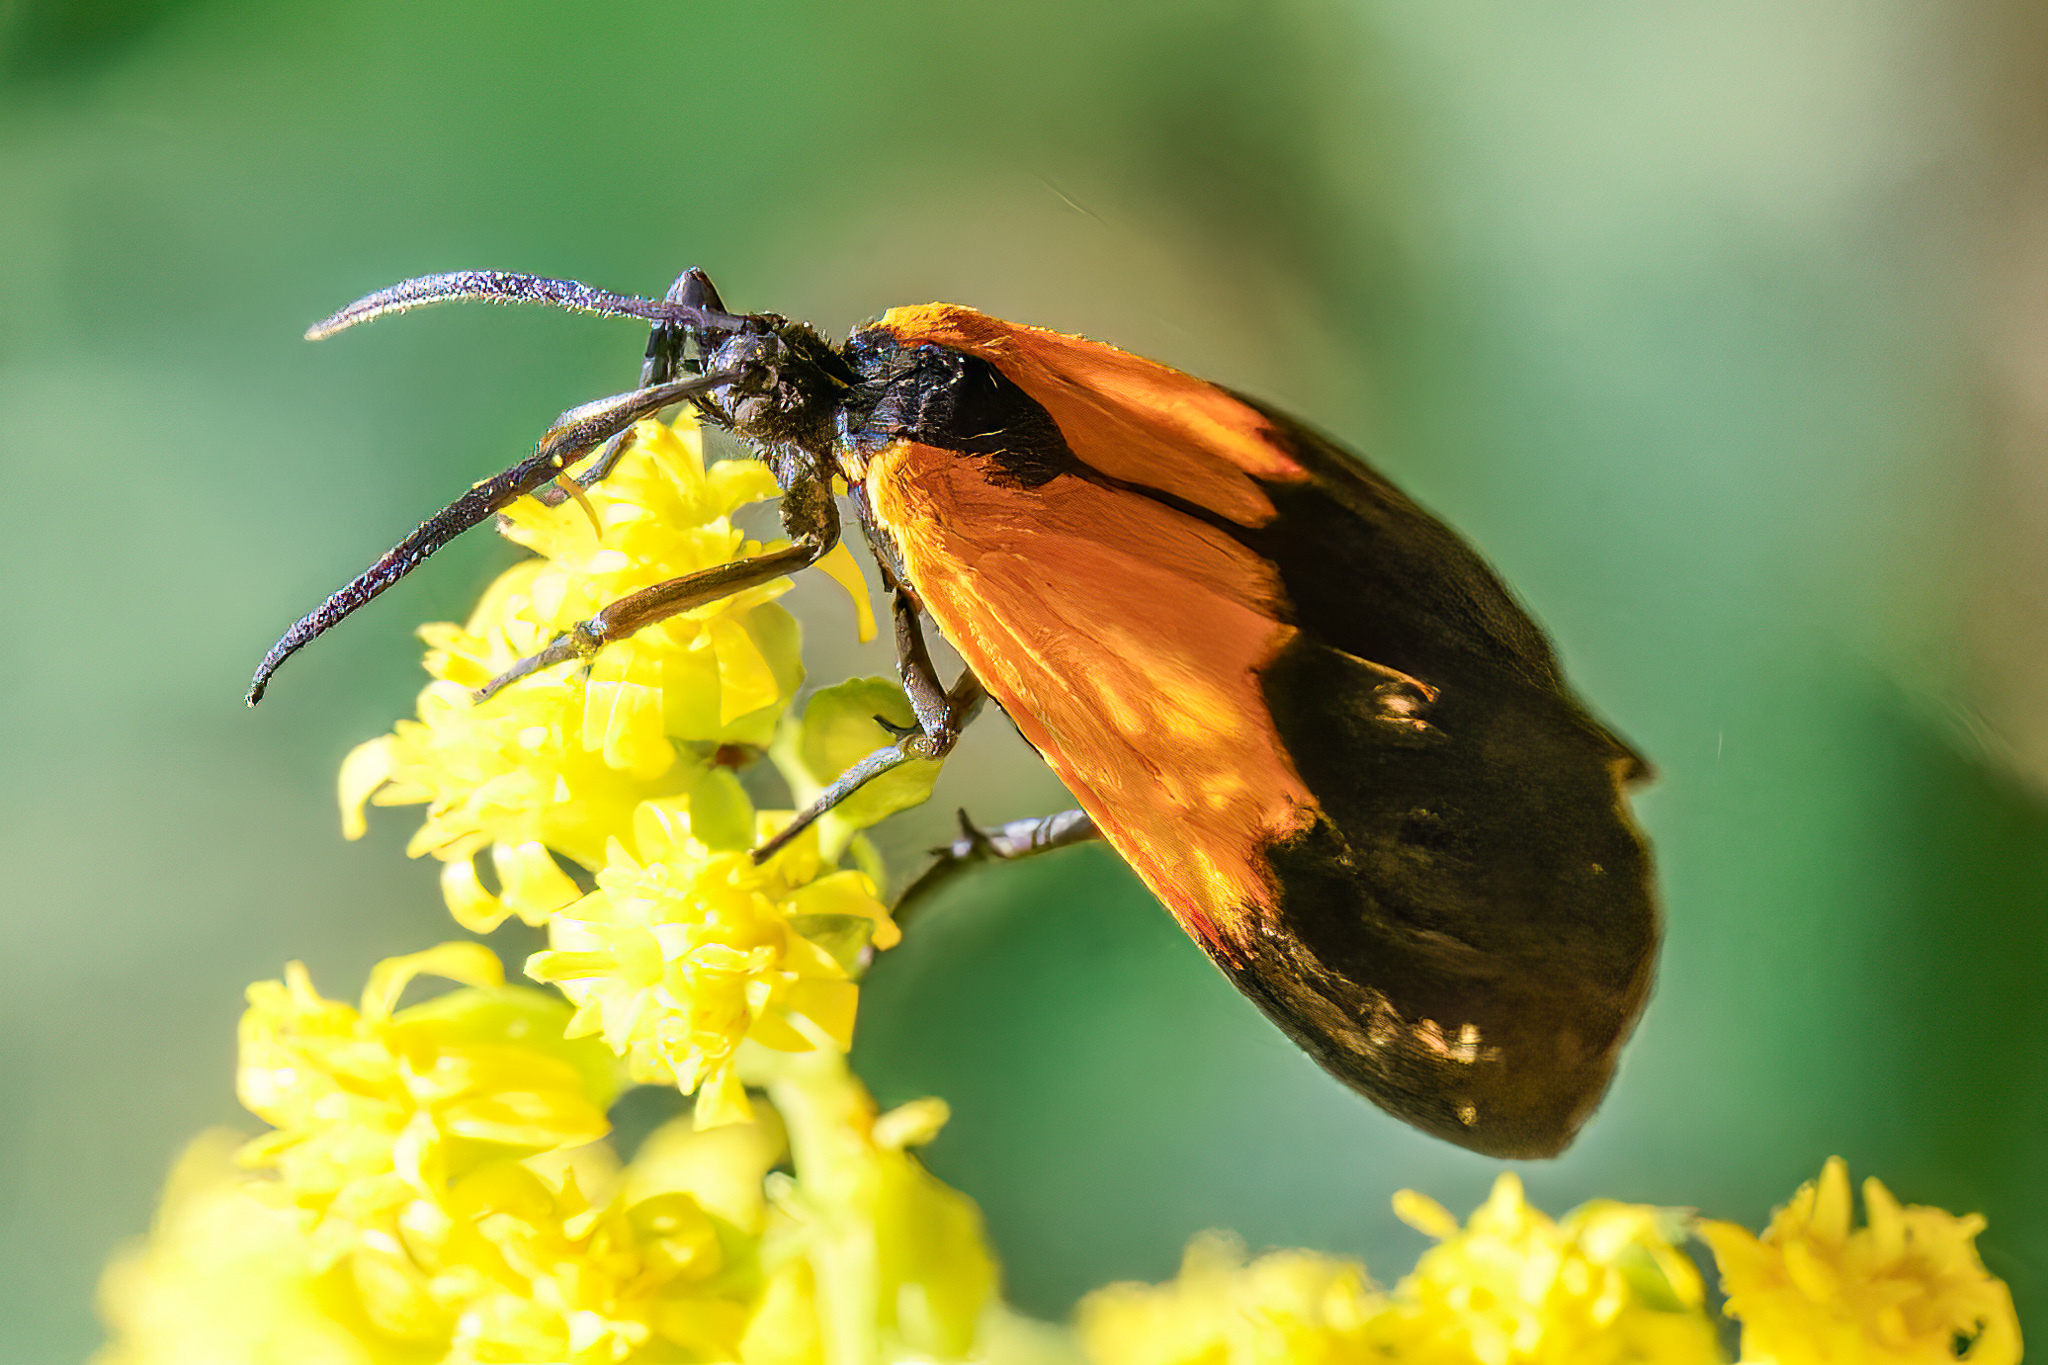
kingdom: Animalia
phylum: Arthropoda
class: Insecta
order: Lepidoptera
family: Erebidae
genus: Lycomorpha
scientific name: Lycomorpha pholus
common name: Black-and-yellow lichen moth
